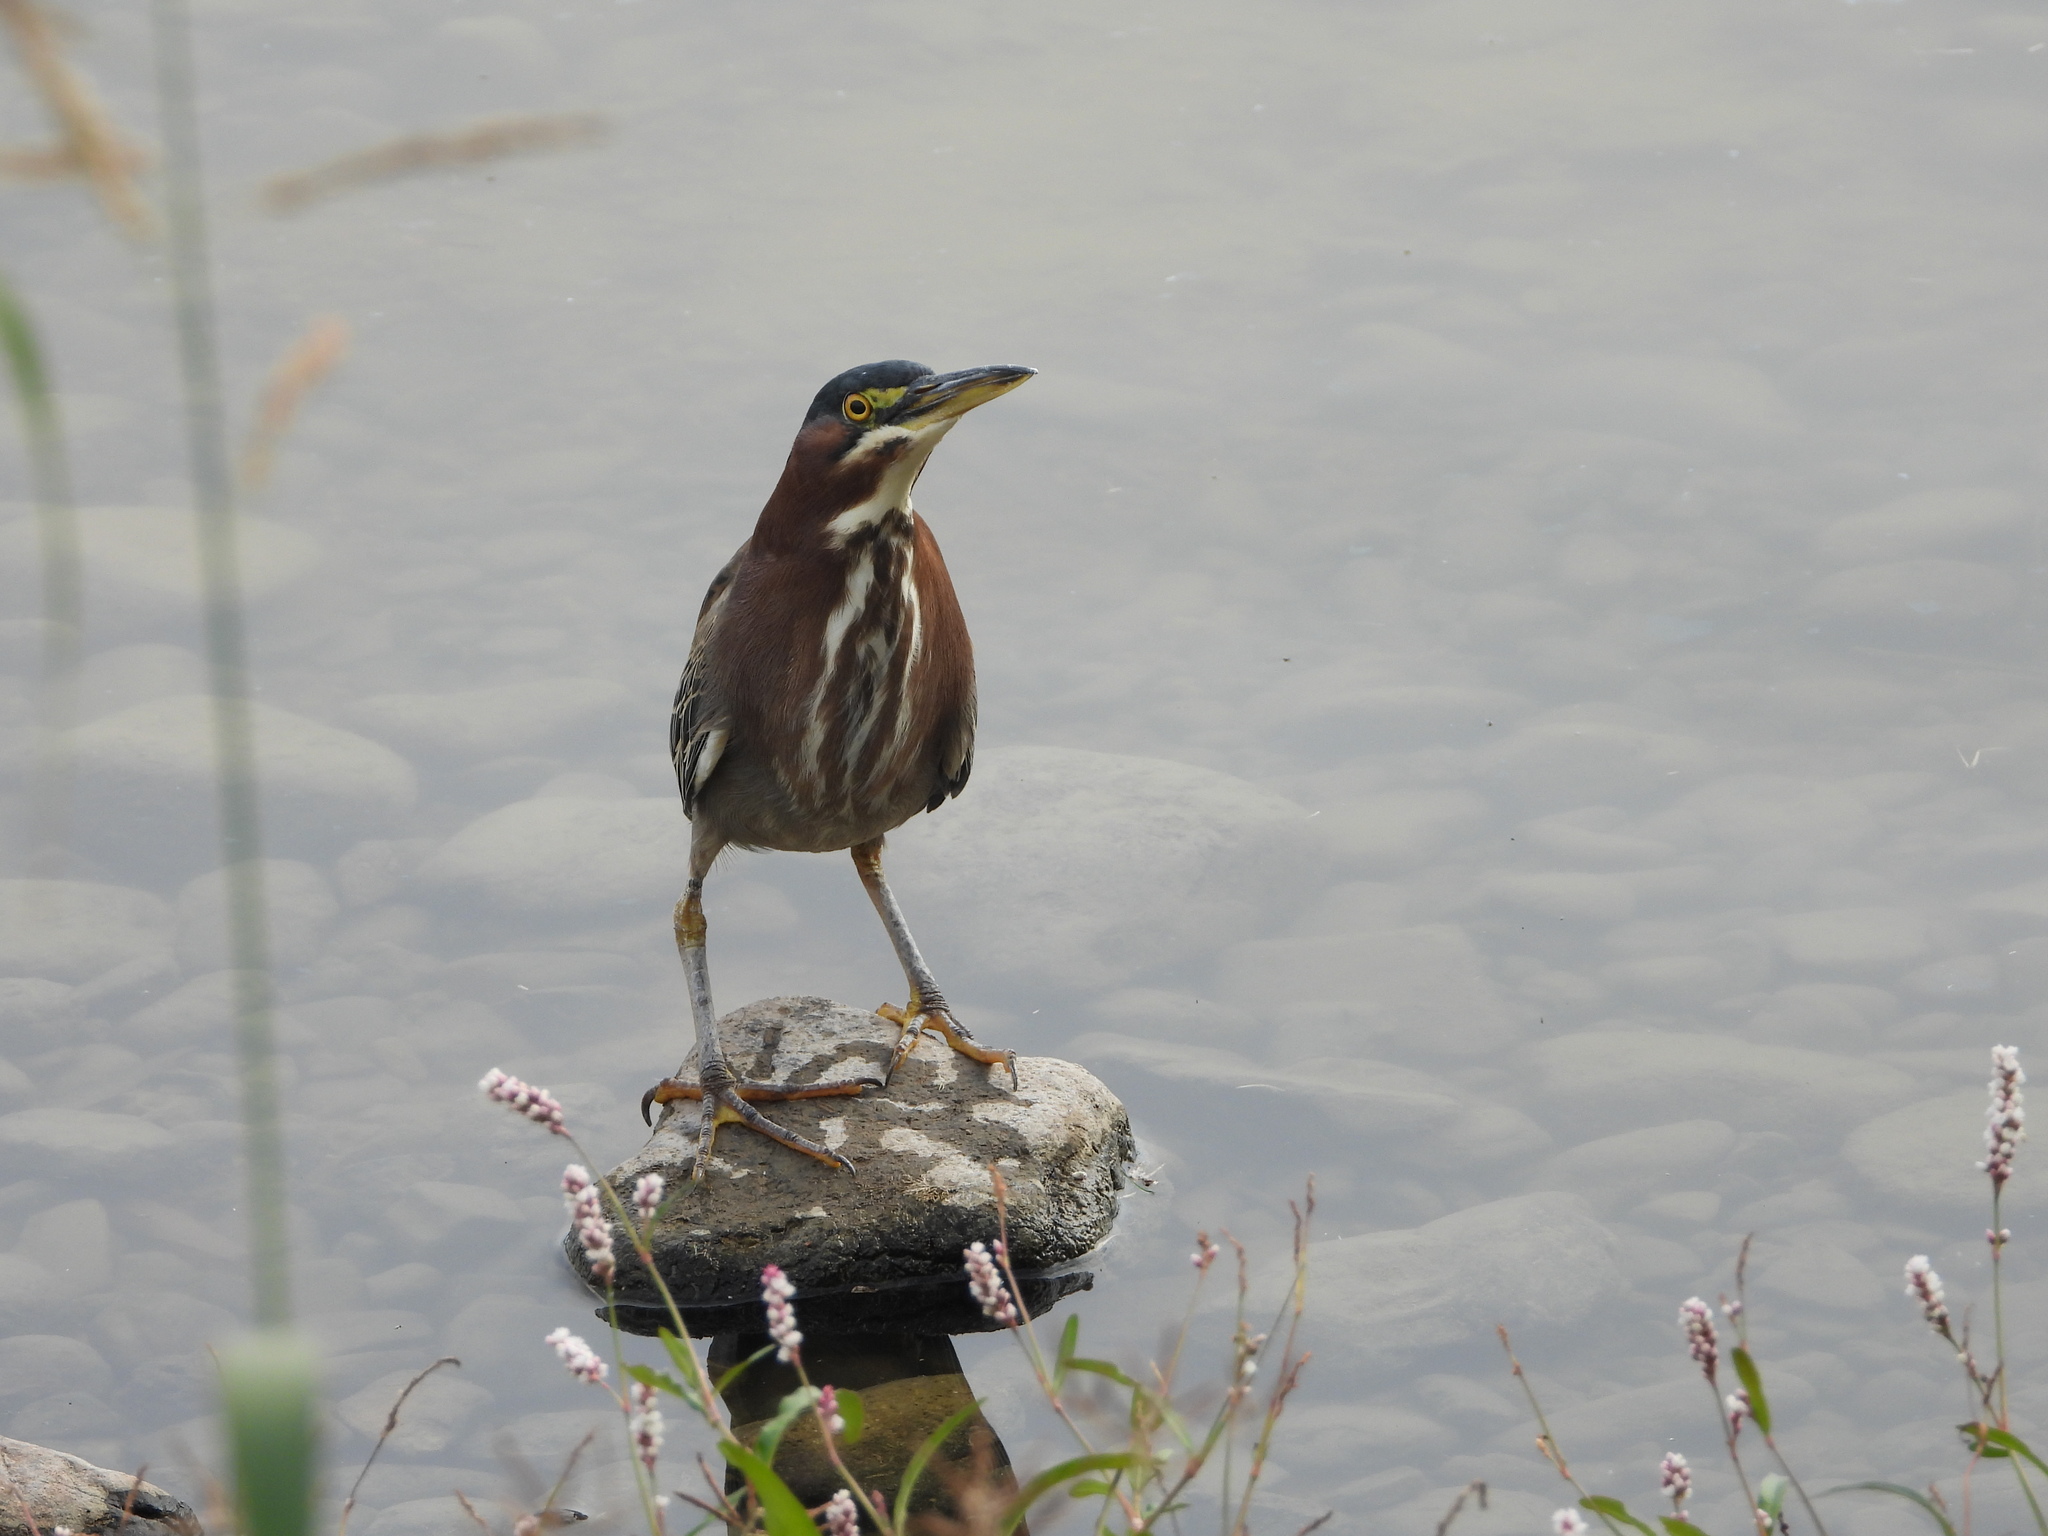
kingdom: Animalia
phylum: Chordata
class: Aves
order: Pelecaniformes
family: Ardeidae
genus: Butorides
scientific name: Butorides virescens
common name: Green heron
